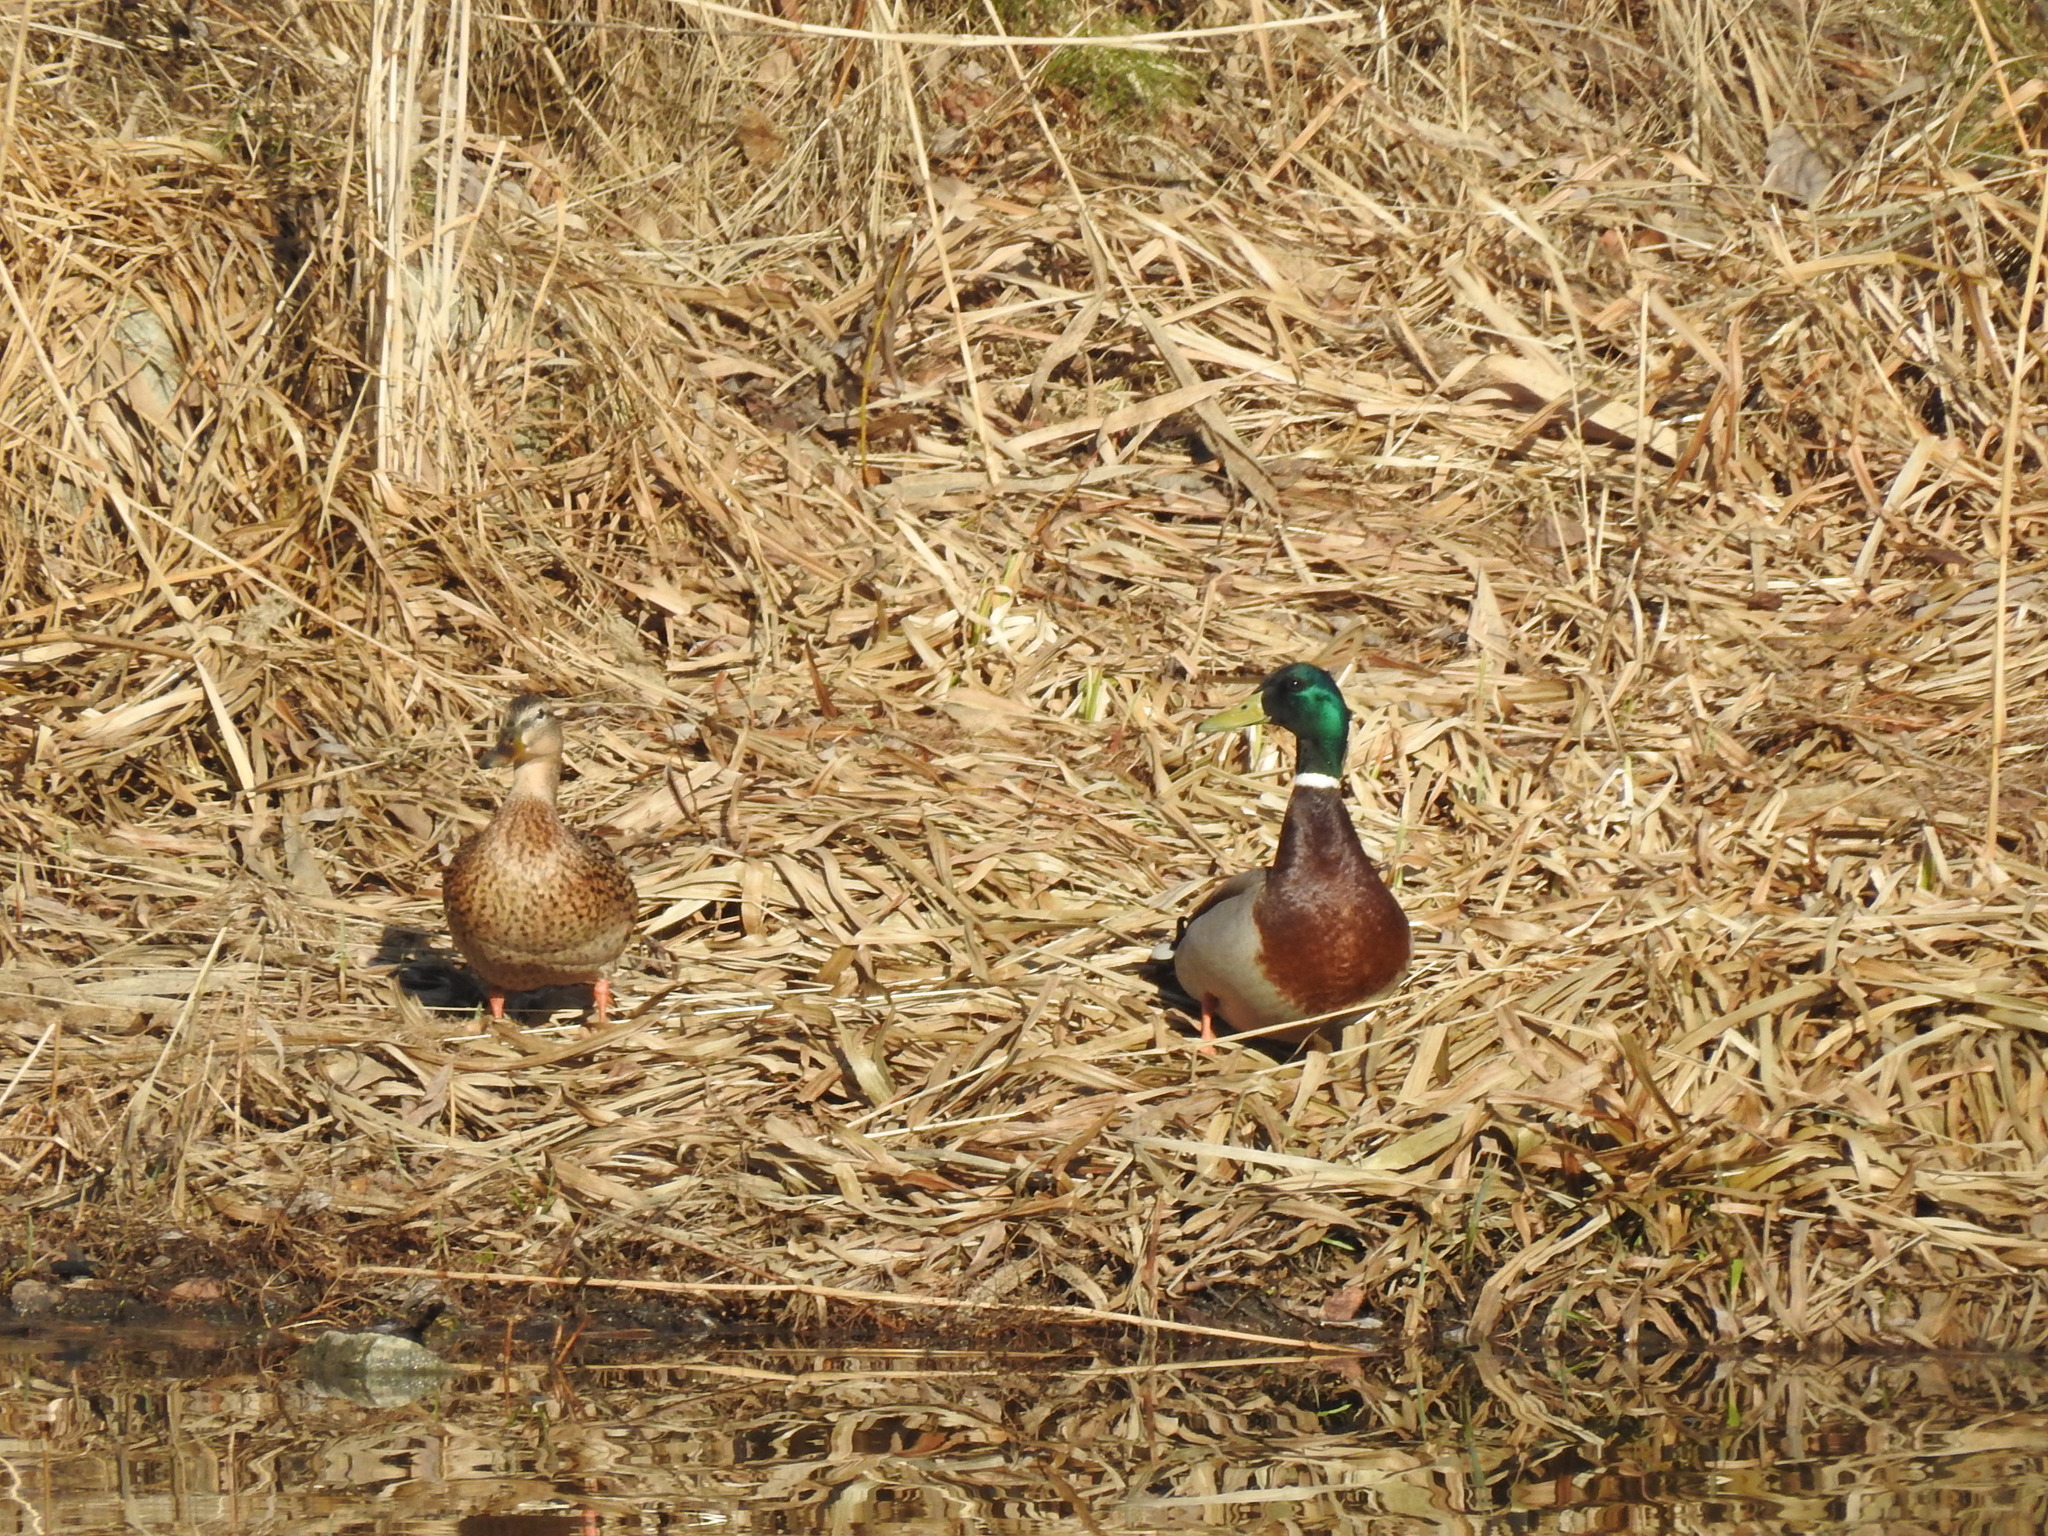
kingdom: Animalia
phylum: Chordata
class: Aves
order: Anseriformes
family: Anatidae
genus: Anas
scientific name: Anas platyrhynchos
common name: Mallard
